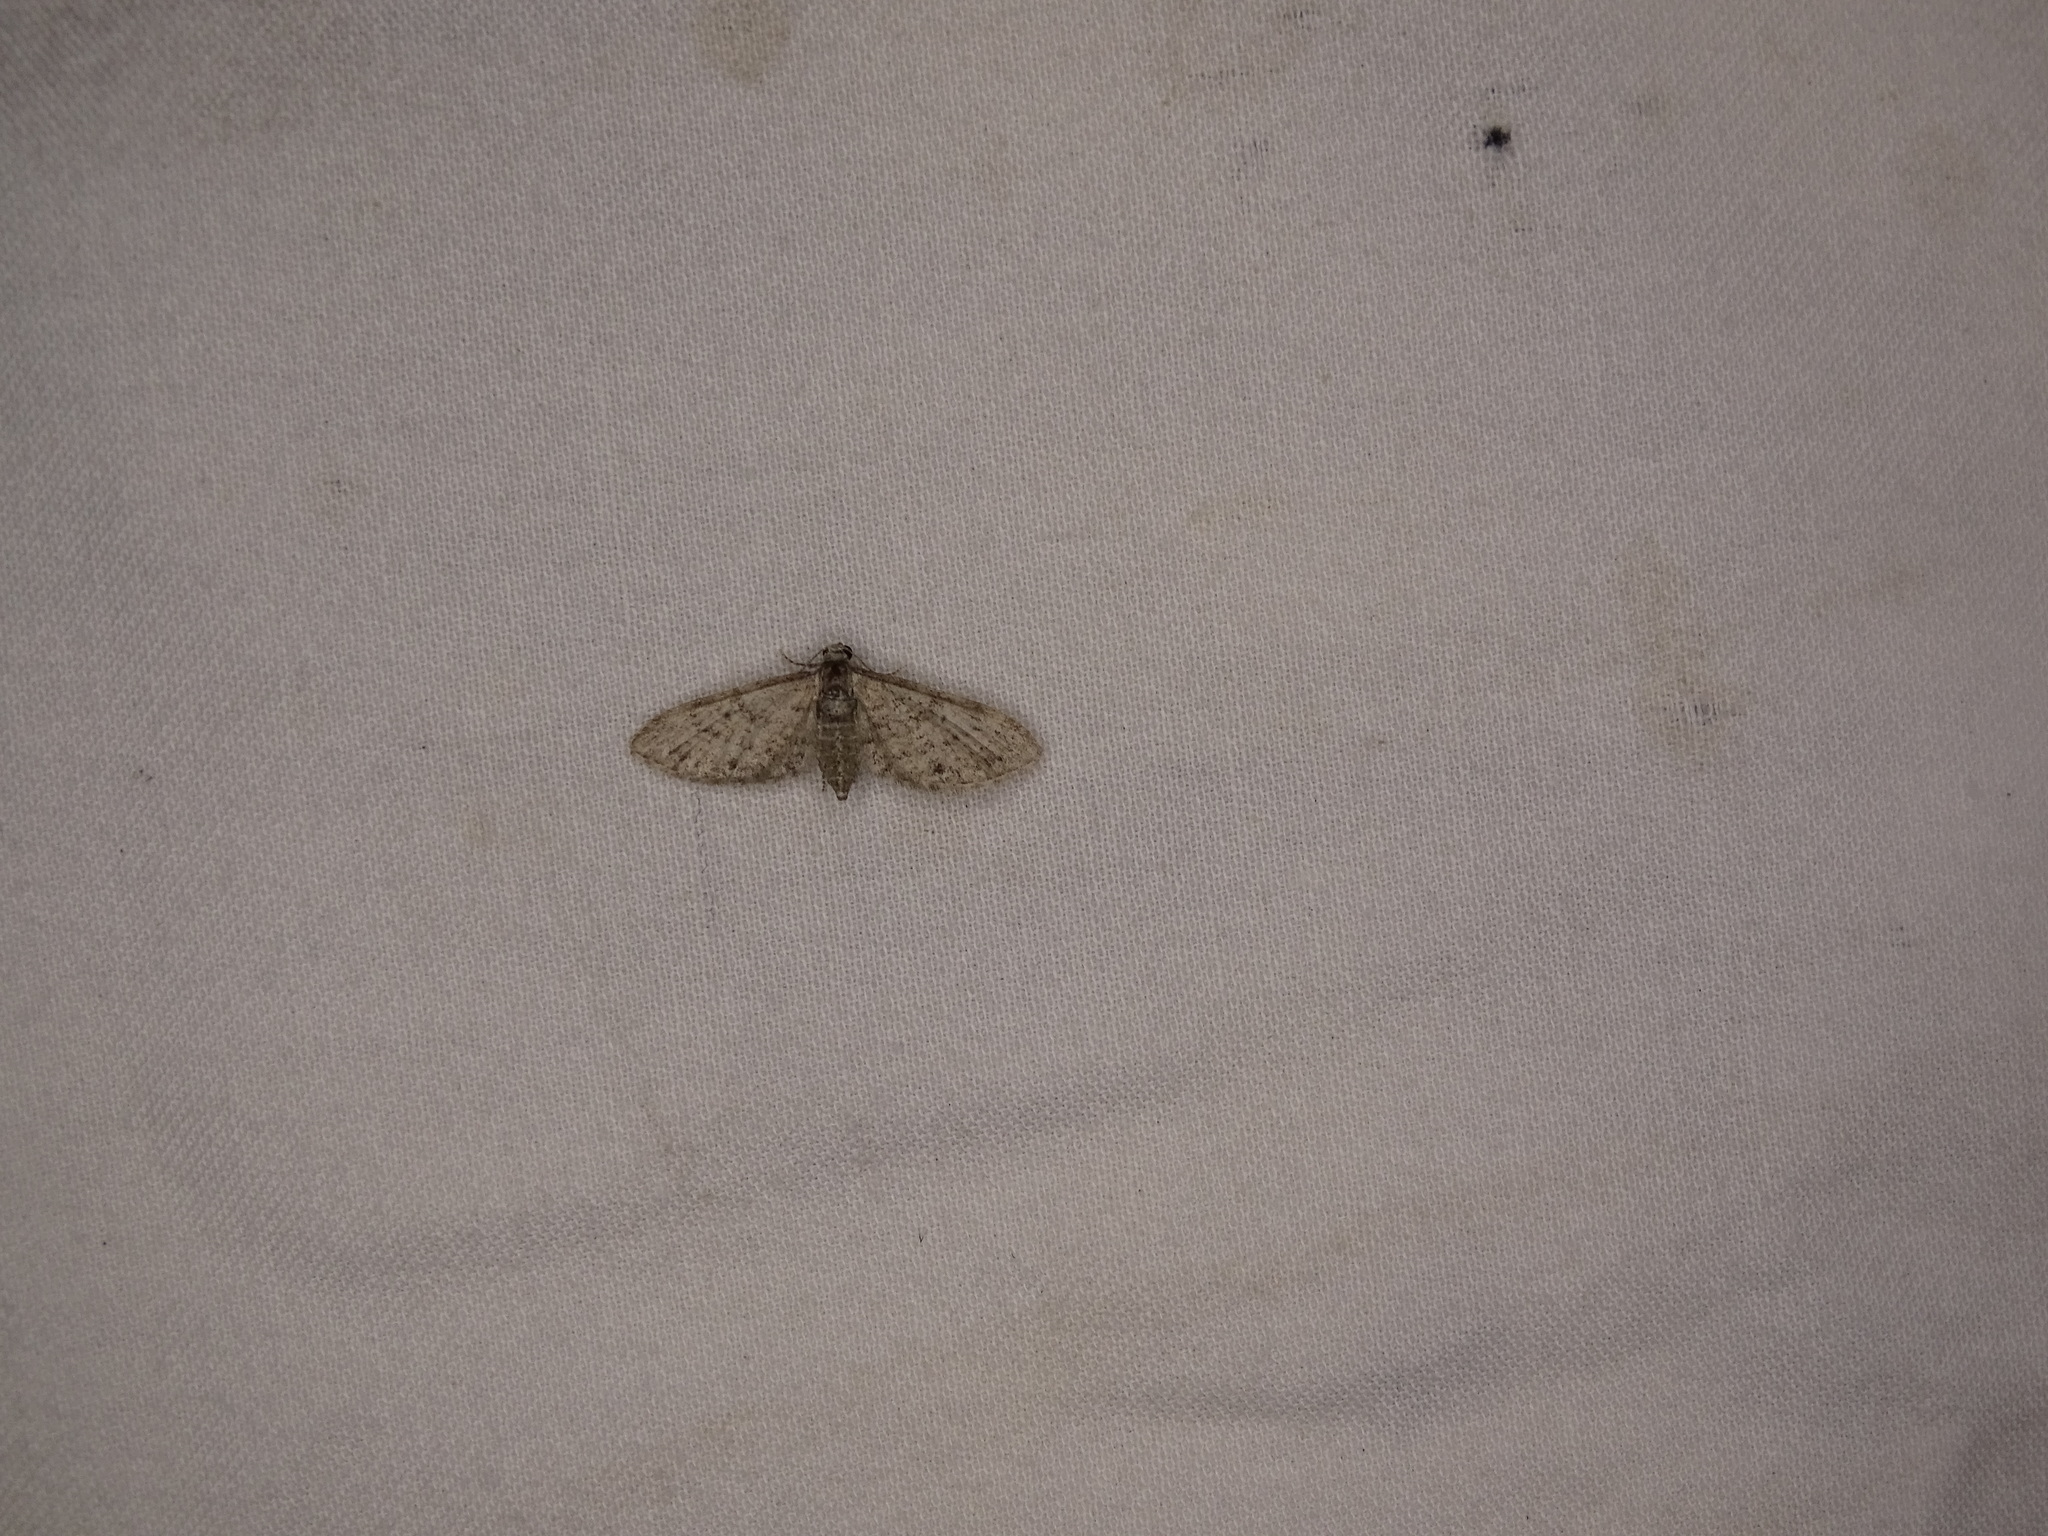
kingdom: Animalia
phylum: Arthropoda
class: Insecta
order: Lepidoptera
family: Geometridae
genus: Eupithecia
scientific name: Eupithecia miserulata
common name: Common eupithecia
